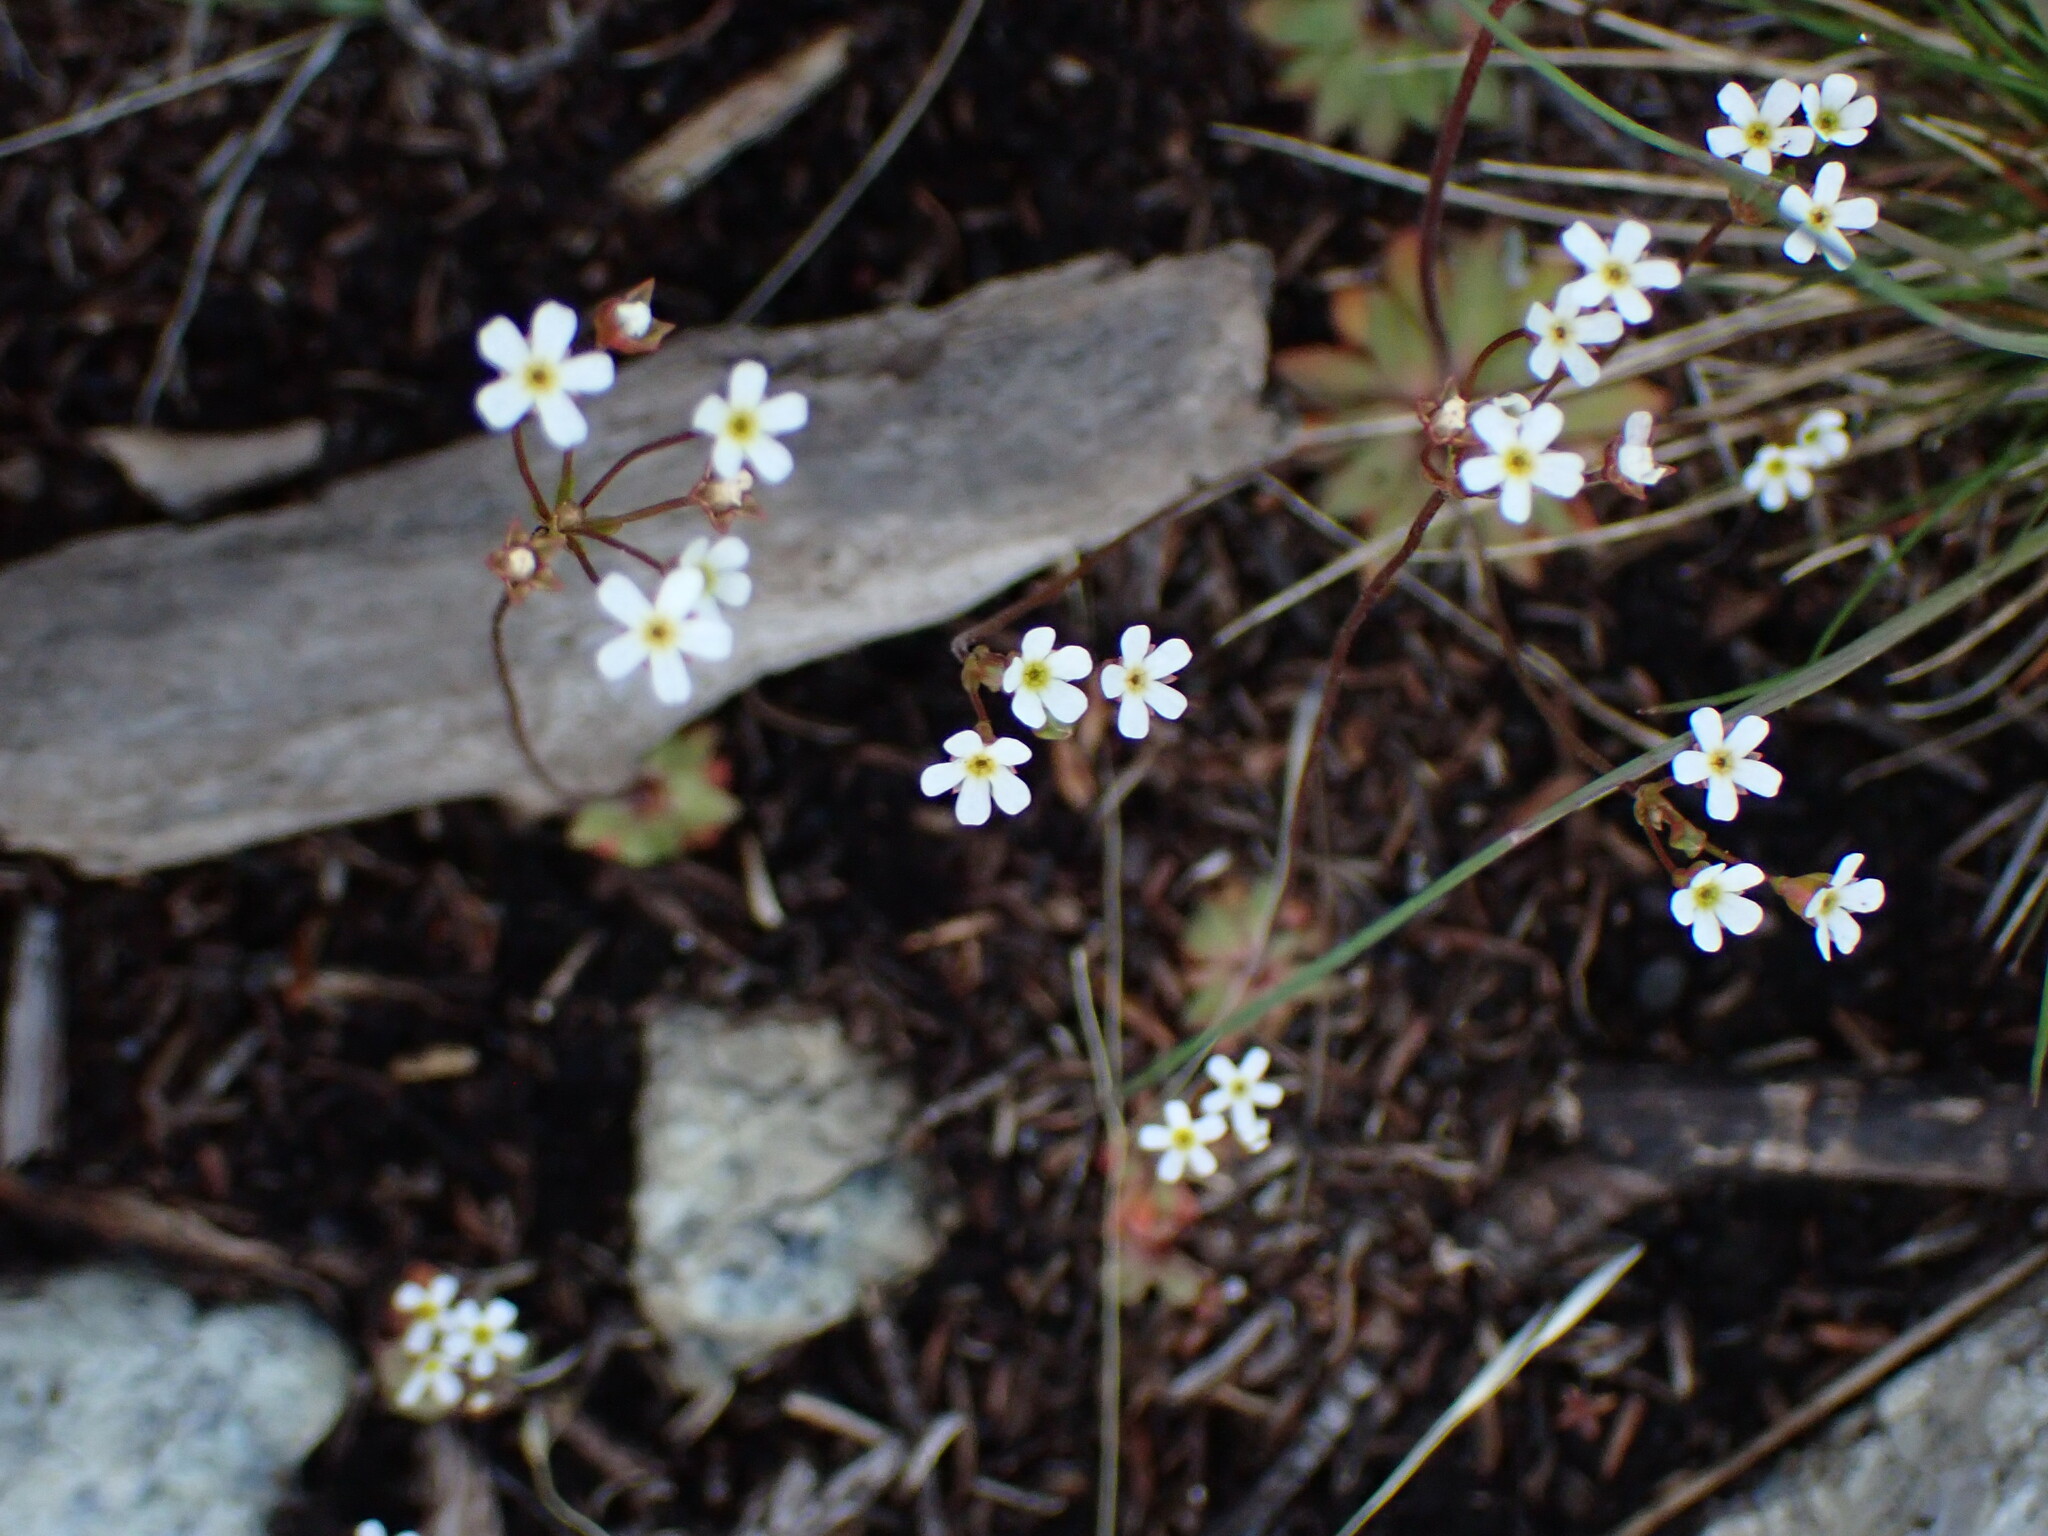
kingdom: Plantae
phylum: Tracheophyta
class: Magnoliopsida
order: Ericales
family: Primulaceae
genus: Androsace
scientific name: Androsace septentrionalis
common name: Hairy northern fairy-candelabra
